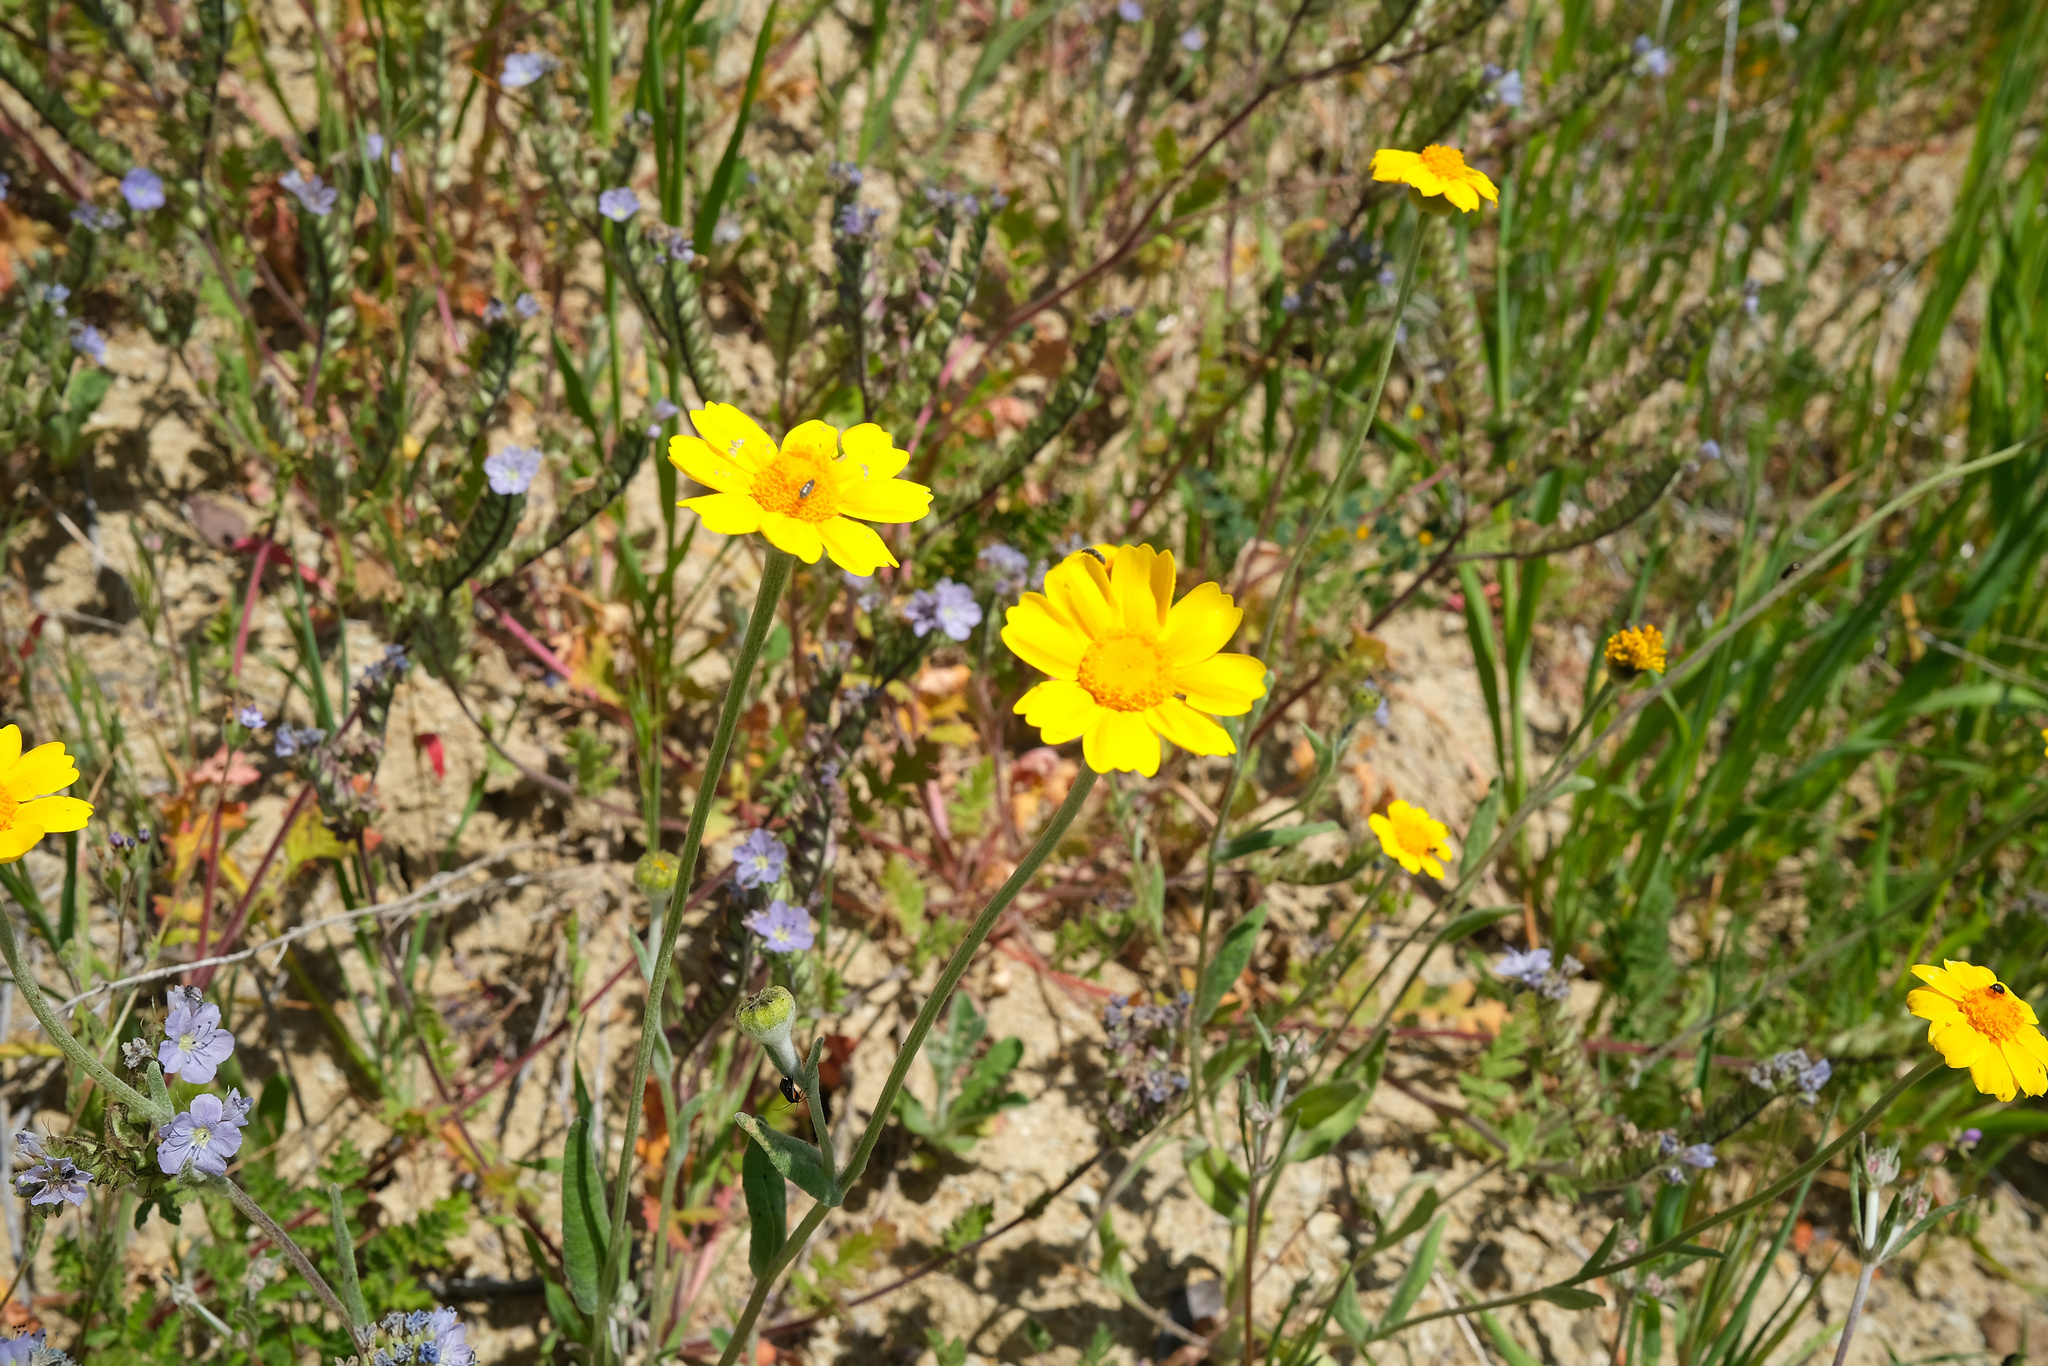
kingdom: Plantae
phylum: Tracheophyta
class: Magnoliopsida
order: Asterales
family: Asteraceae
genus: Monolopia
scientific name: Monolopia major
